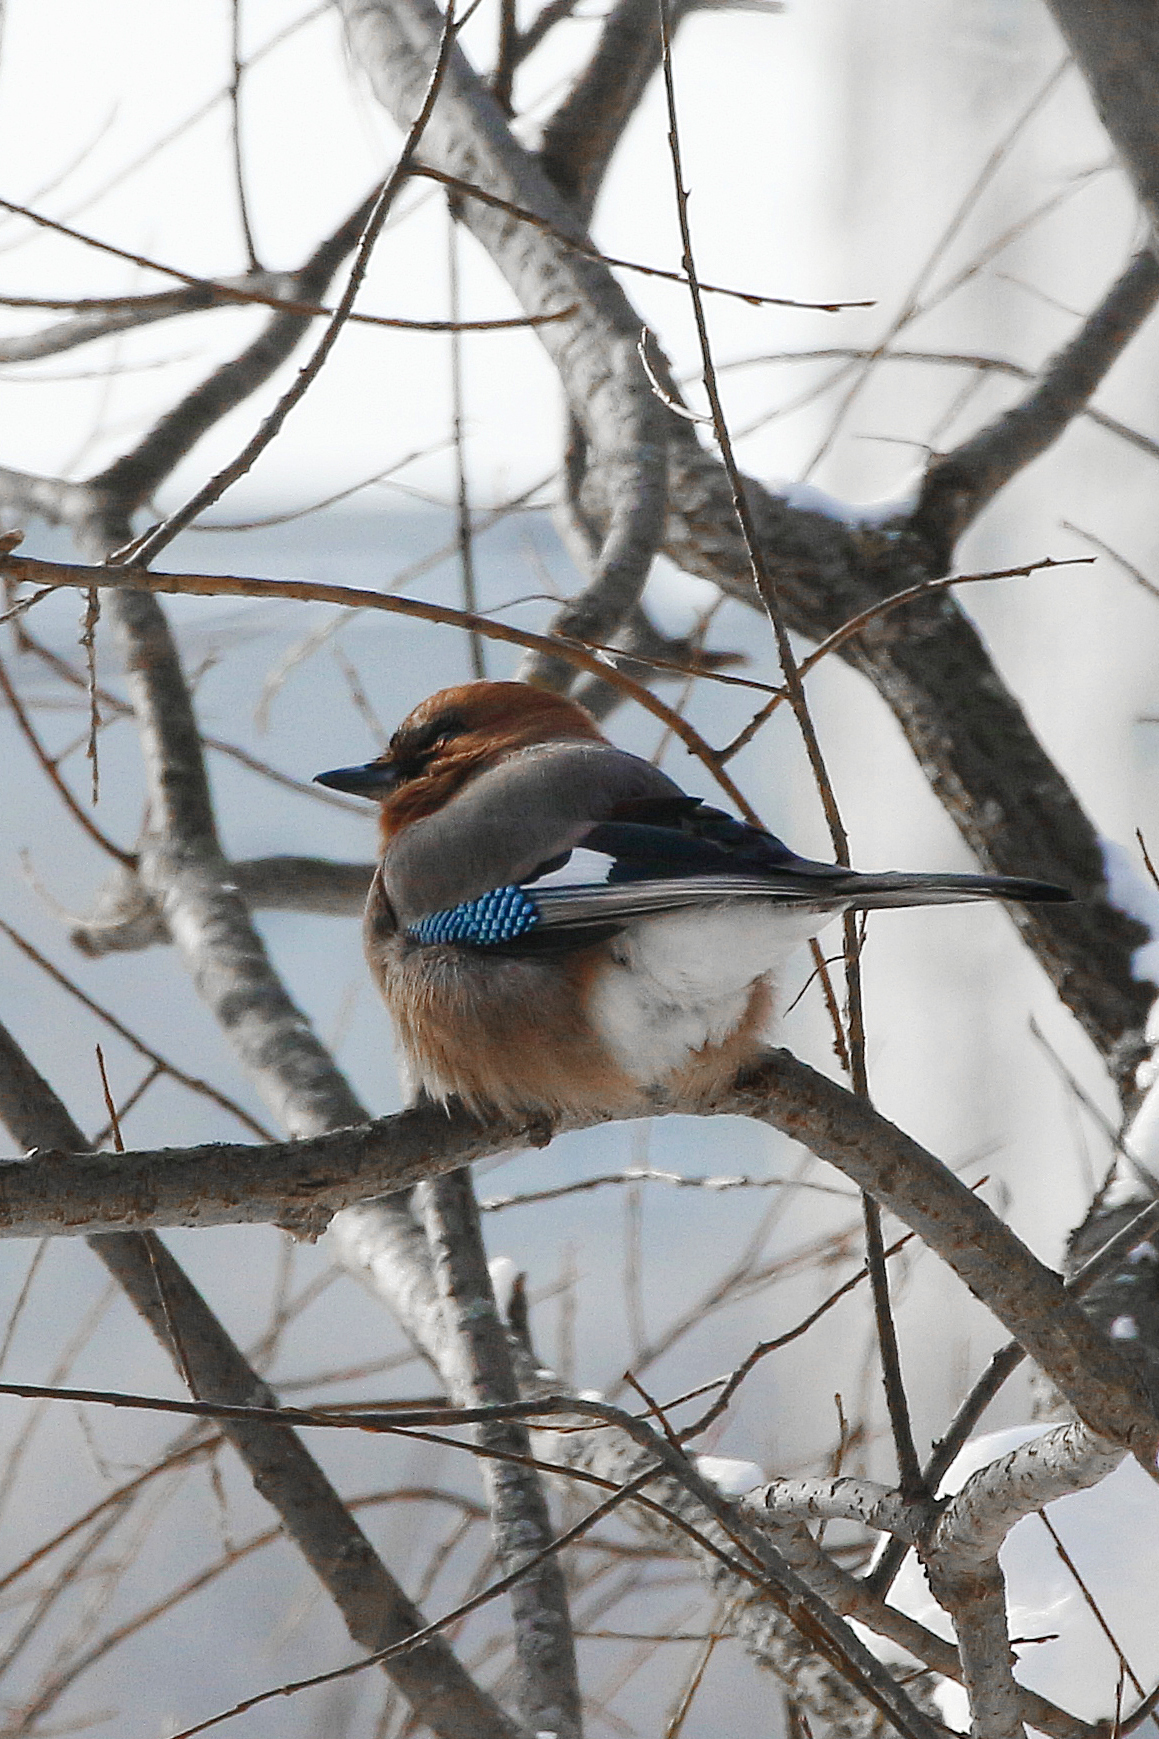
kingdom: Animalia
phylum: Chordata
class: Aves
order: Passeriformes
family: Corvidae
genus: Garrulus
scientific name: Garrulus glandarius
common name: Eurasian jay
